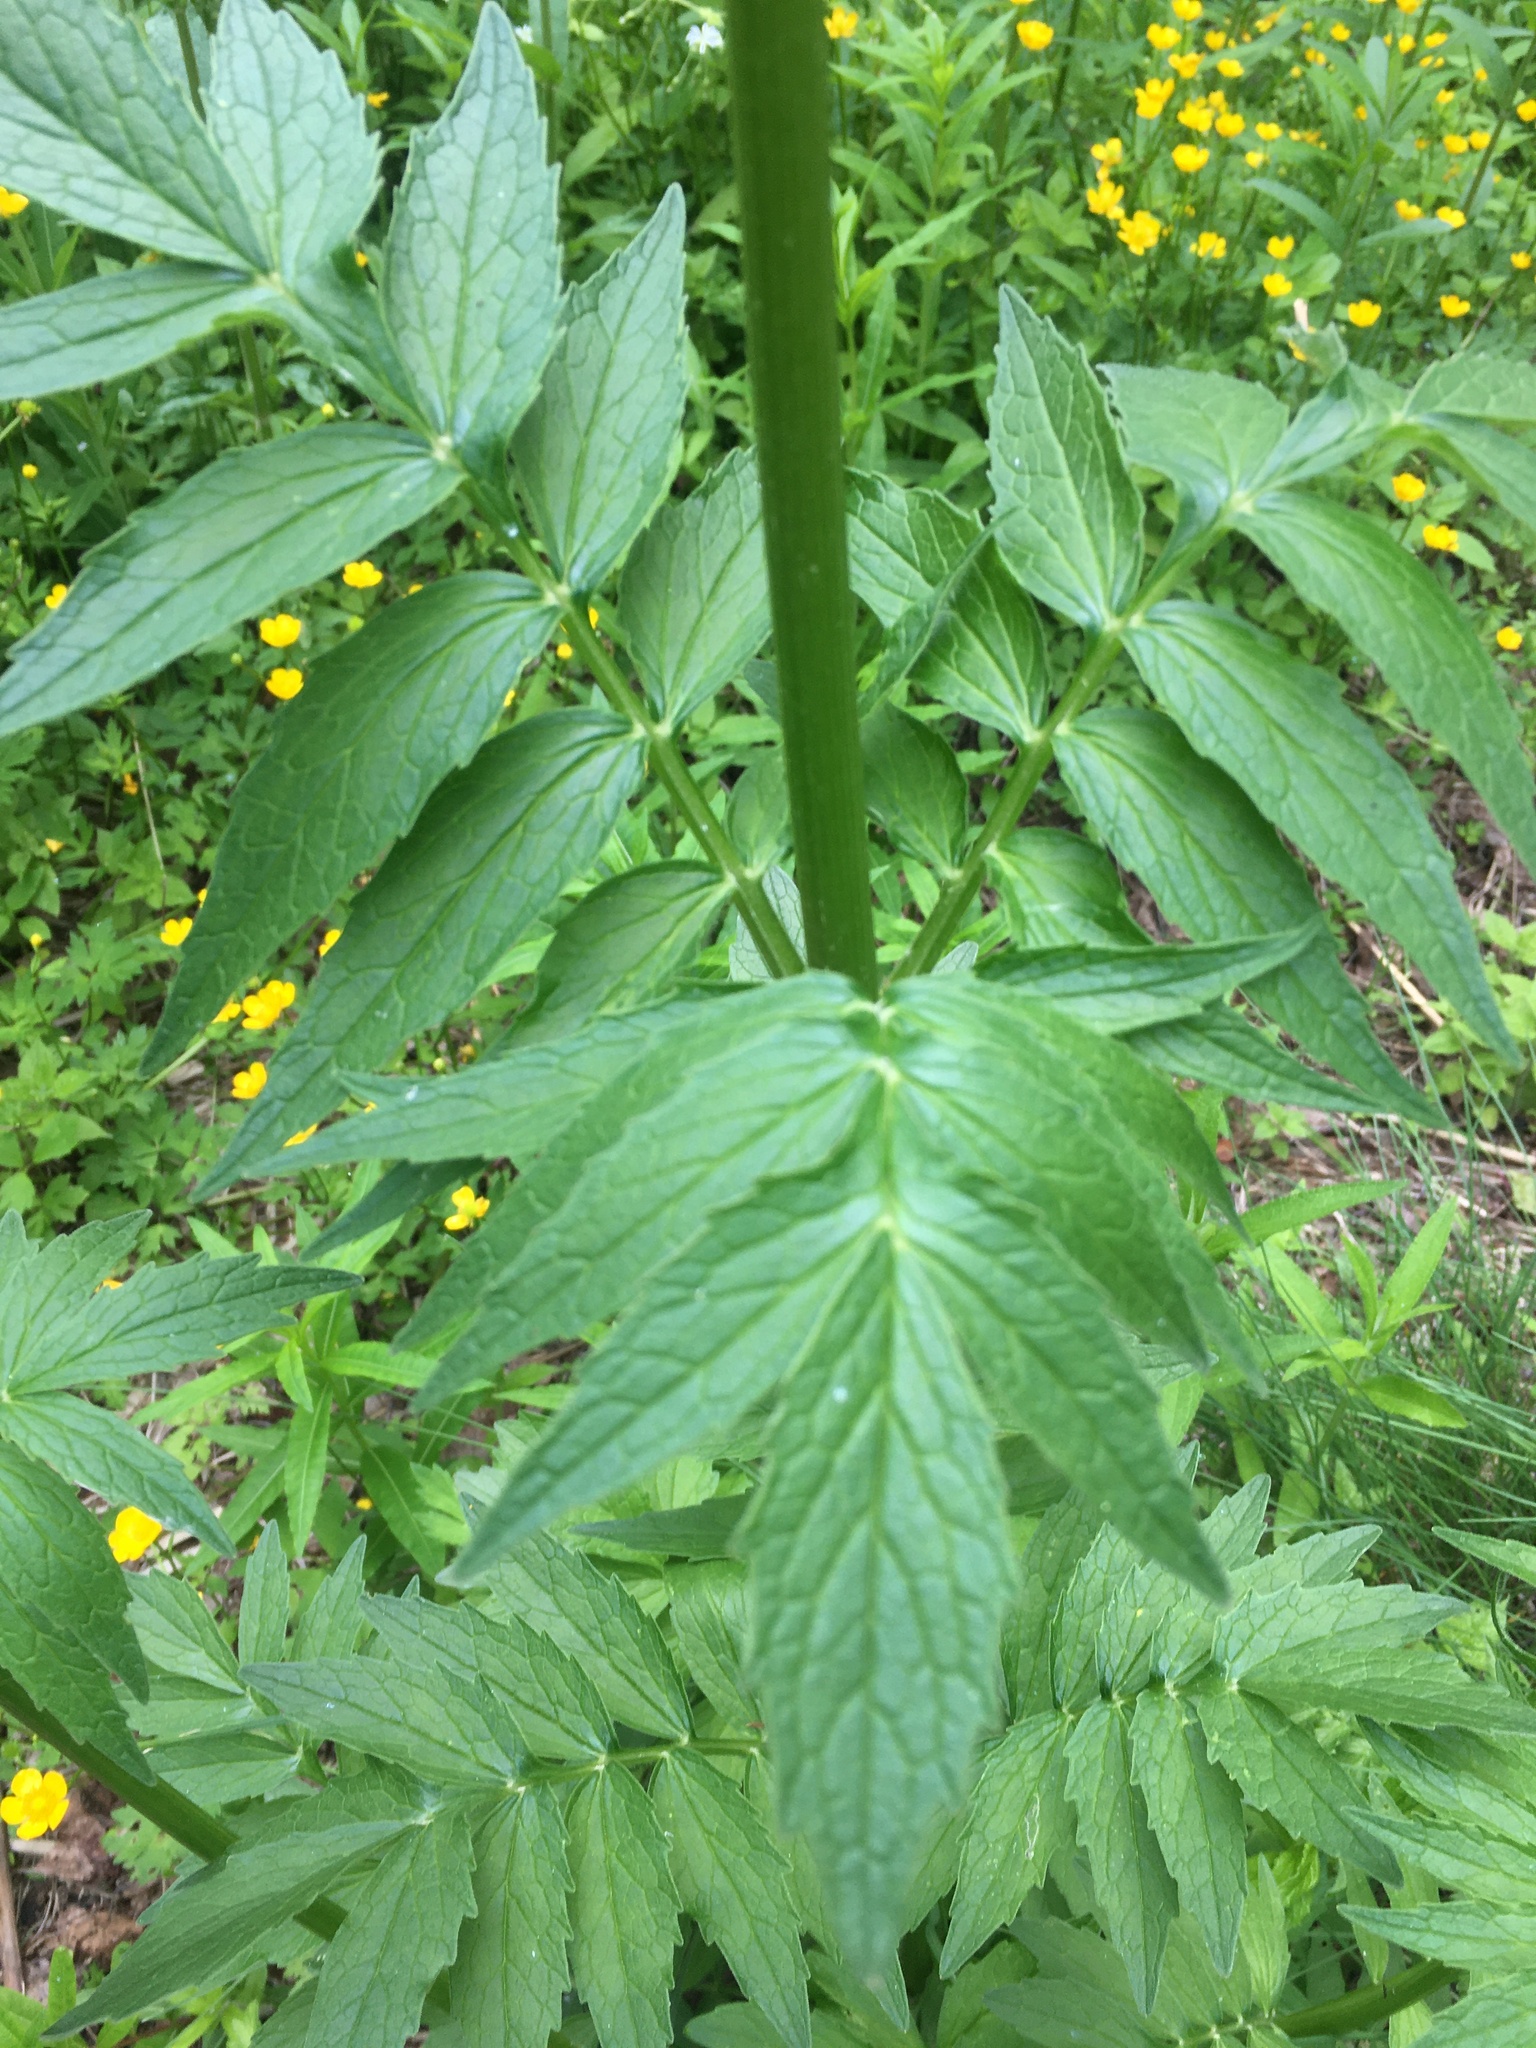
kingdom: Plantae
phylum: Tracheophyta
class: Magnoliopsida
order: Dipsacales
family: Caprifoliaceae
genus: Valeriana
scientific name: Valeriana officinalis
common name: Common valerian
